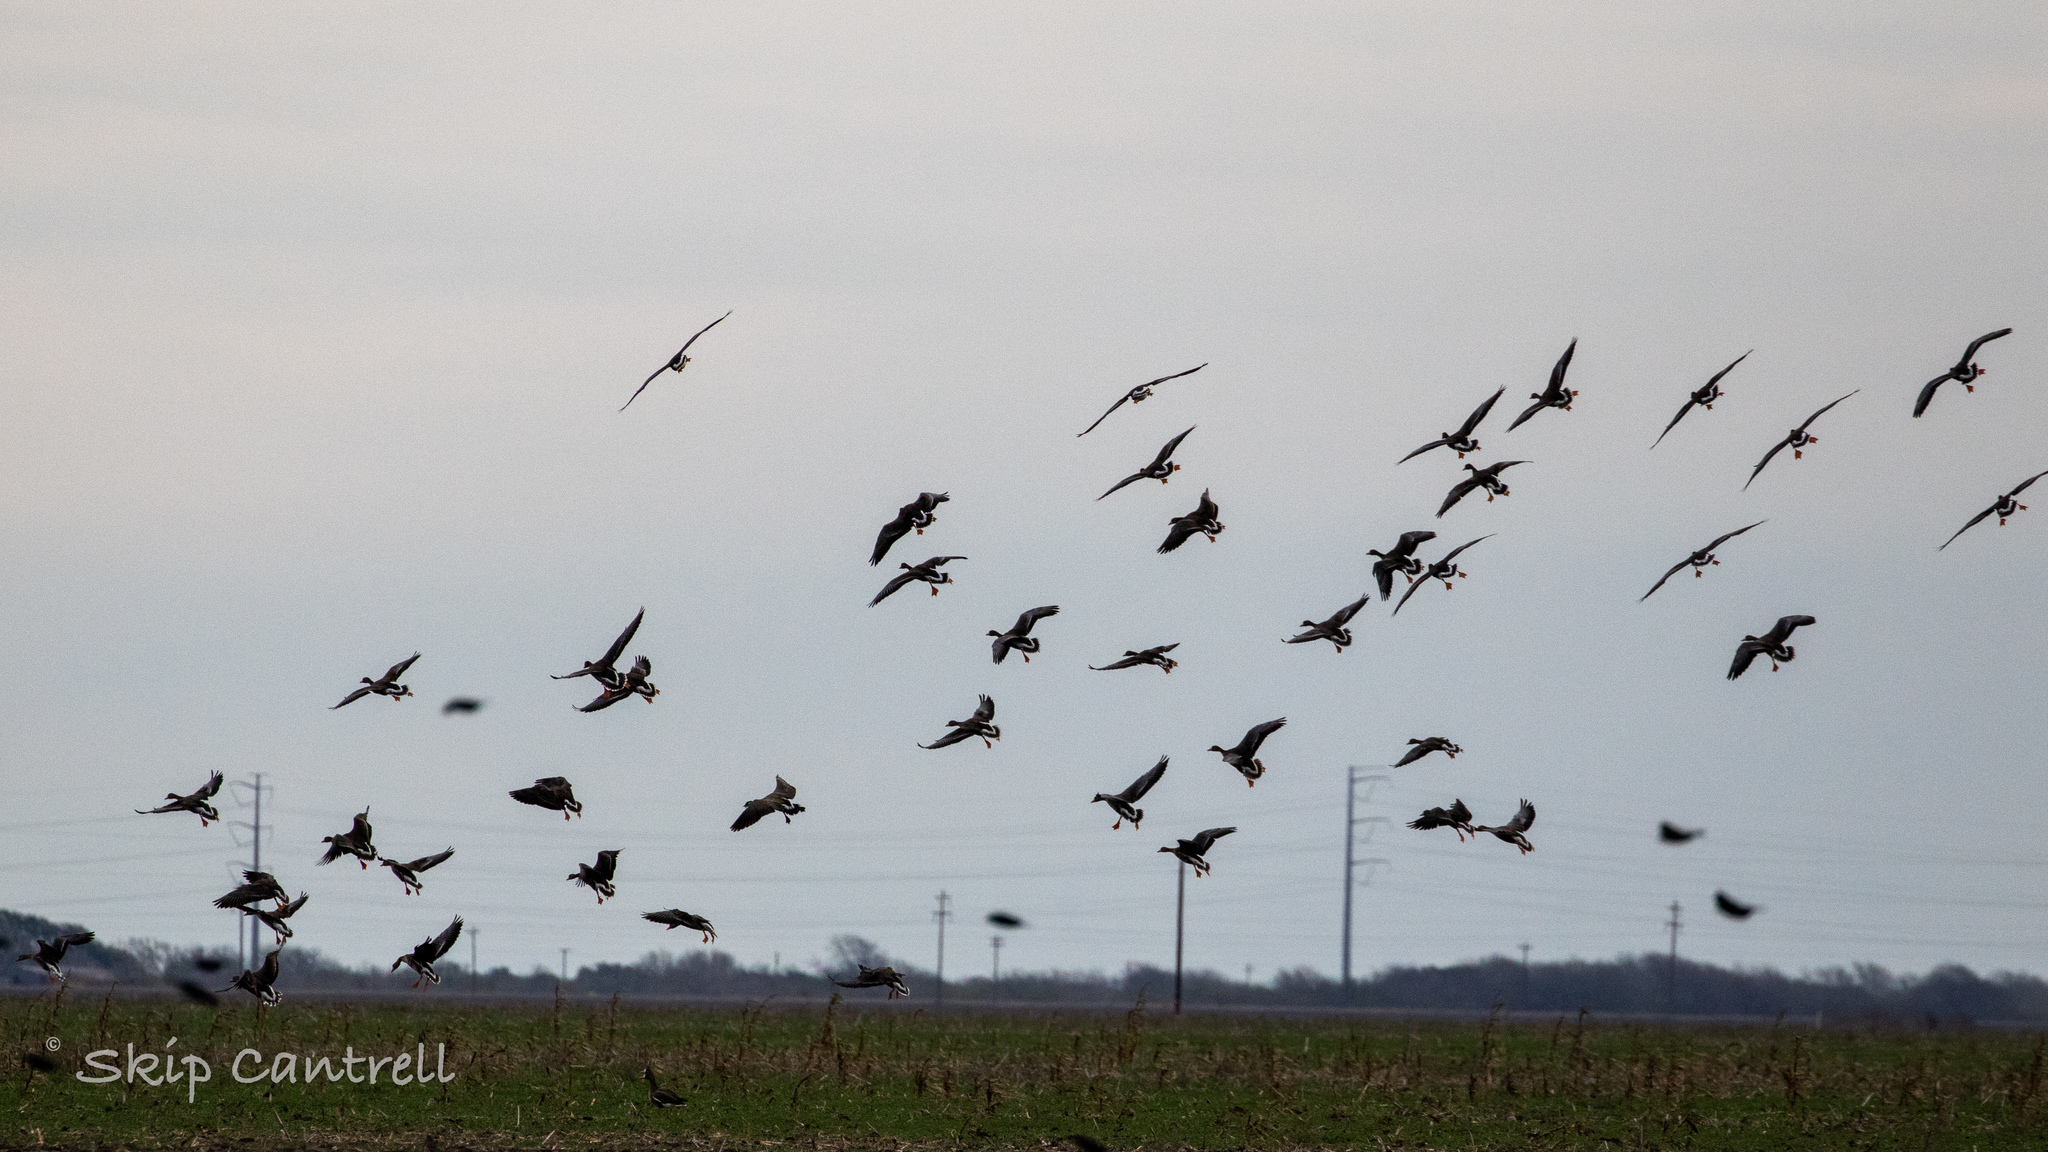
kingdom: Animalia
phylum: Chordata
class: Aves
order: Anseriformes
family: Anatidae
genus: Anser
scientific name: Anser albifrons
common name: Greater white-fronted goose
